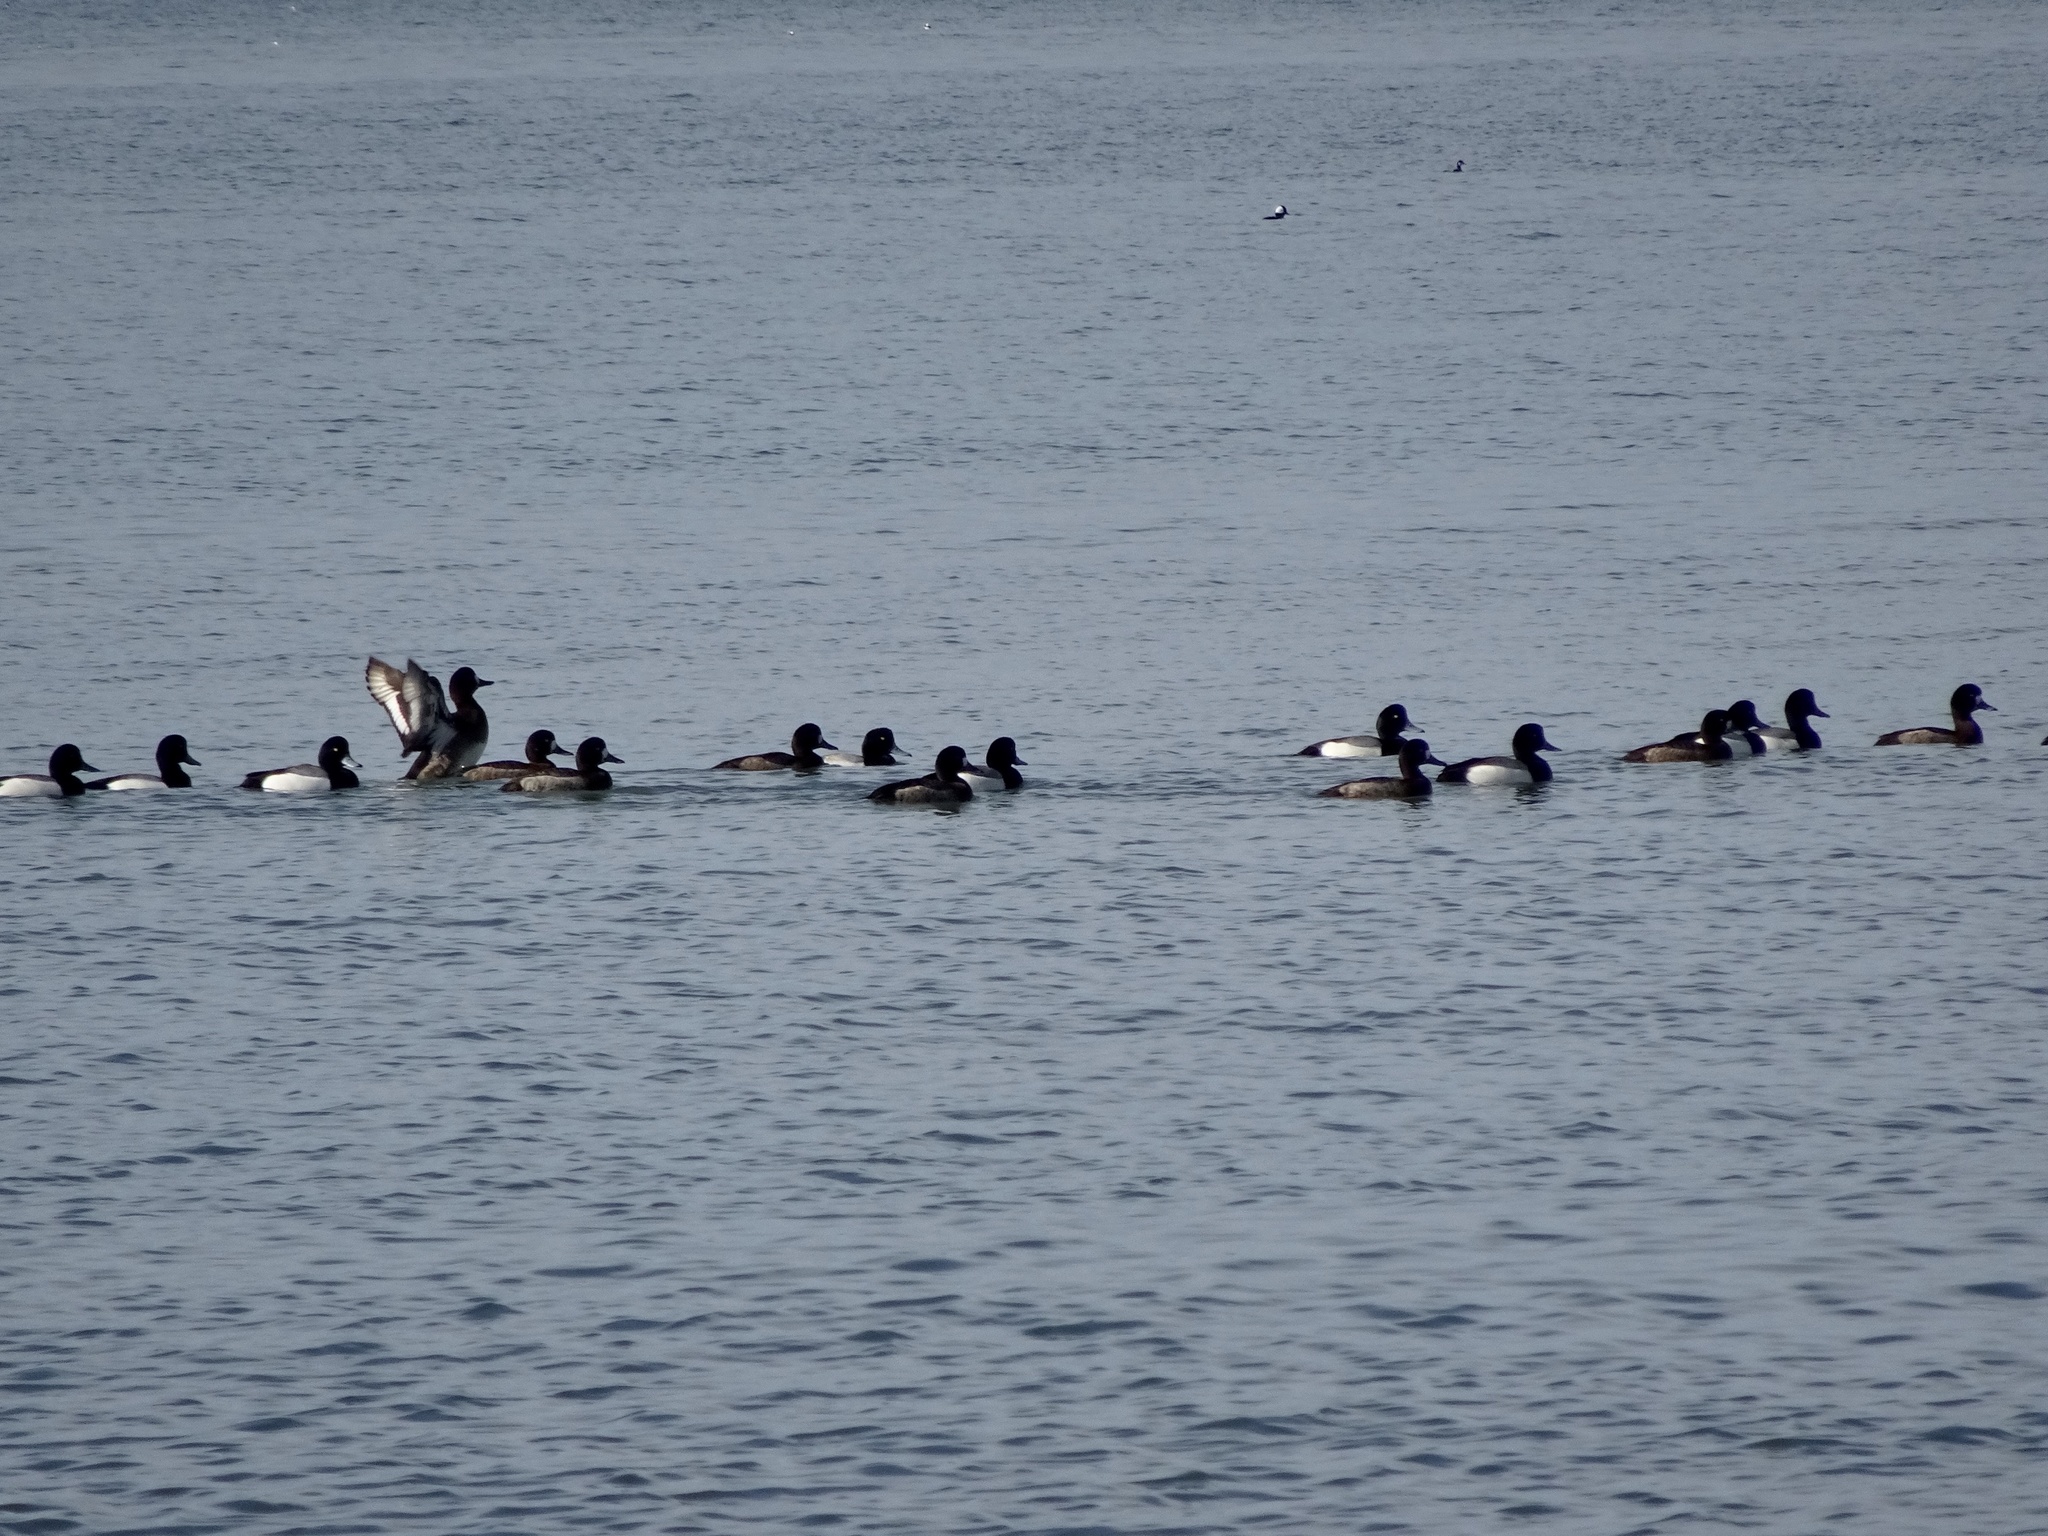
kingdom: Animalia
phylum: Chordata
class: Aves
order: Anseriformes
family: Anatidae
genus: Aythya
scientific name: Aythya marila
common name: Greater scaup
